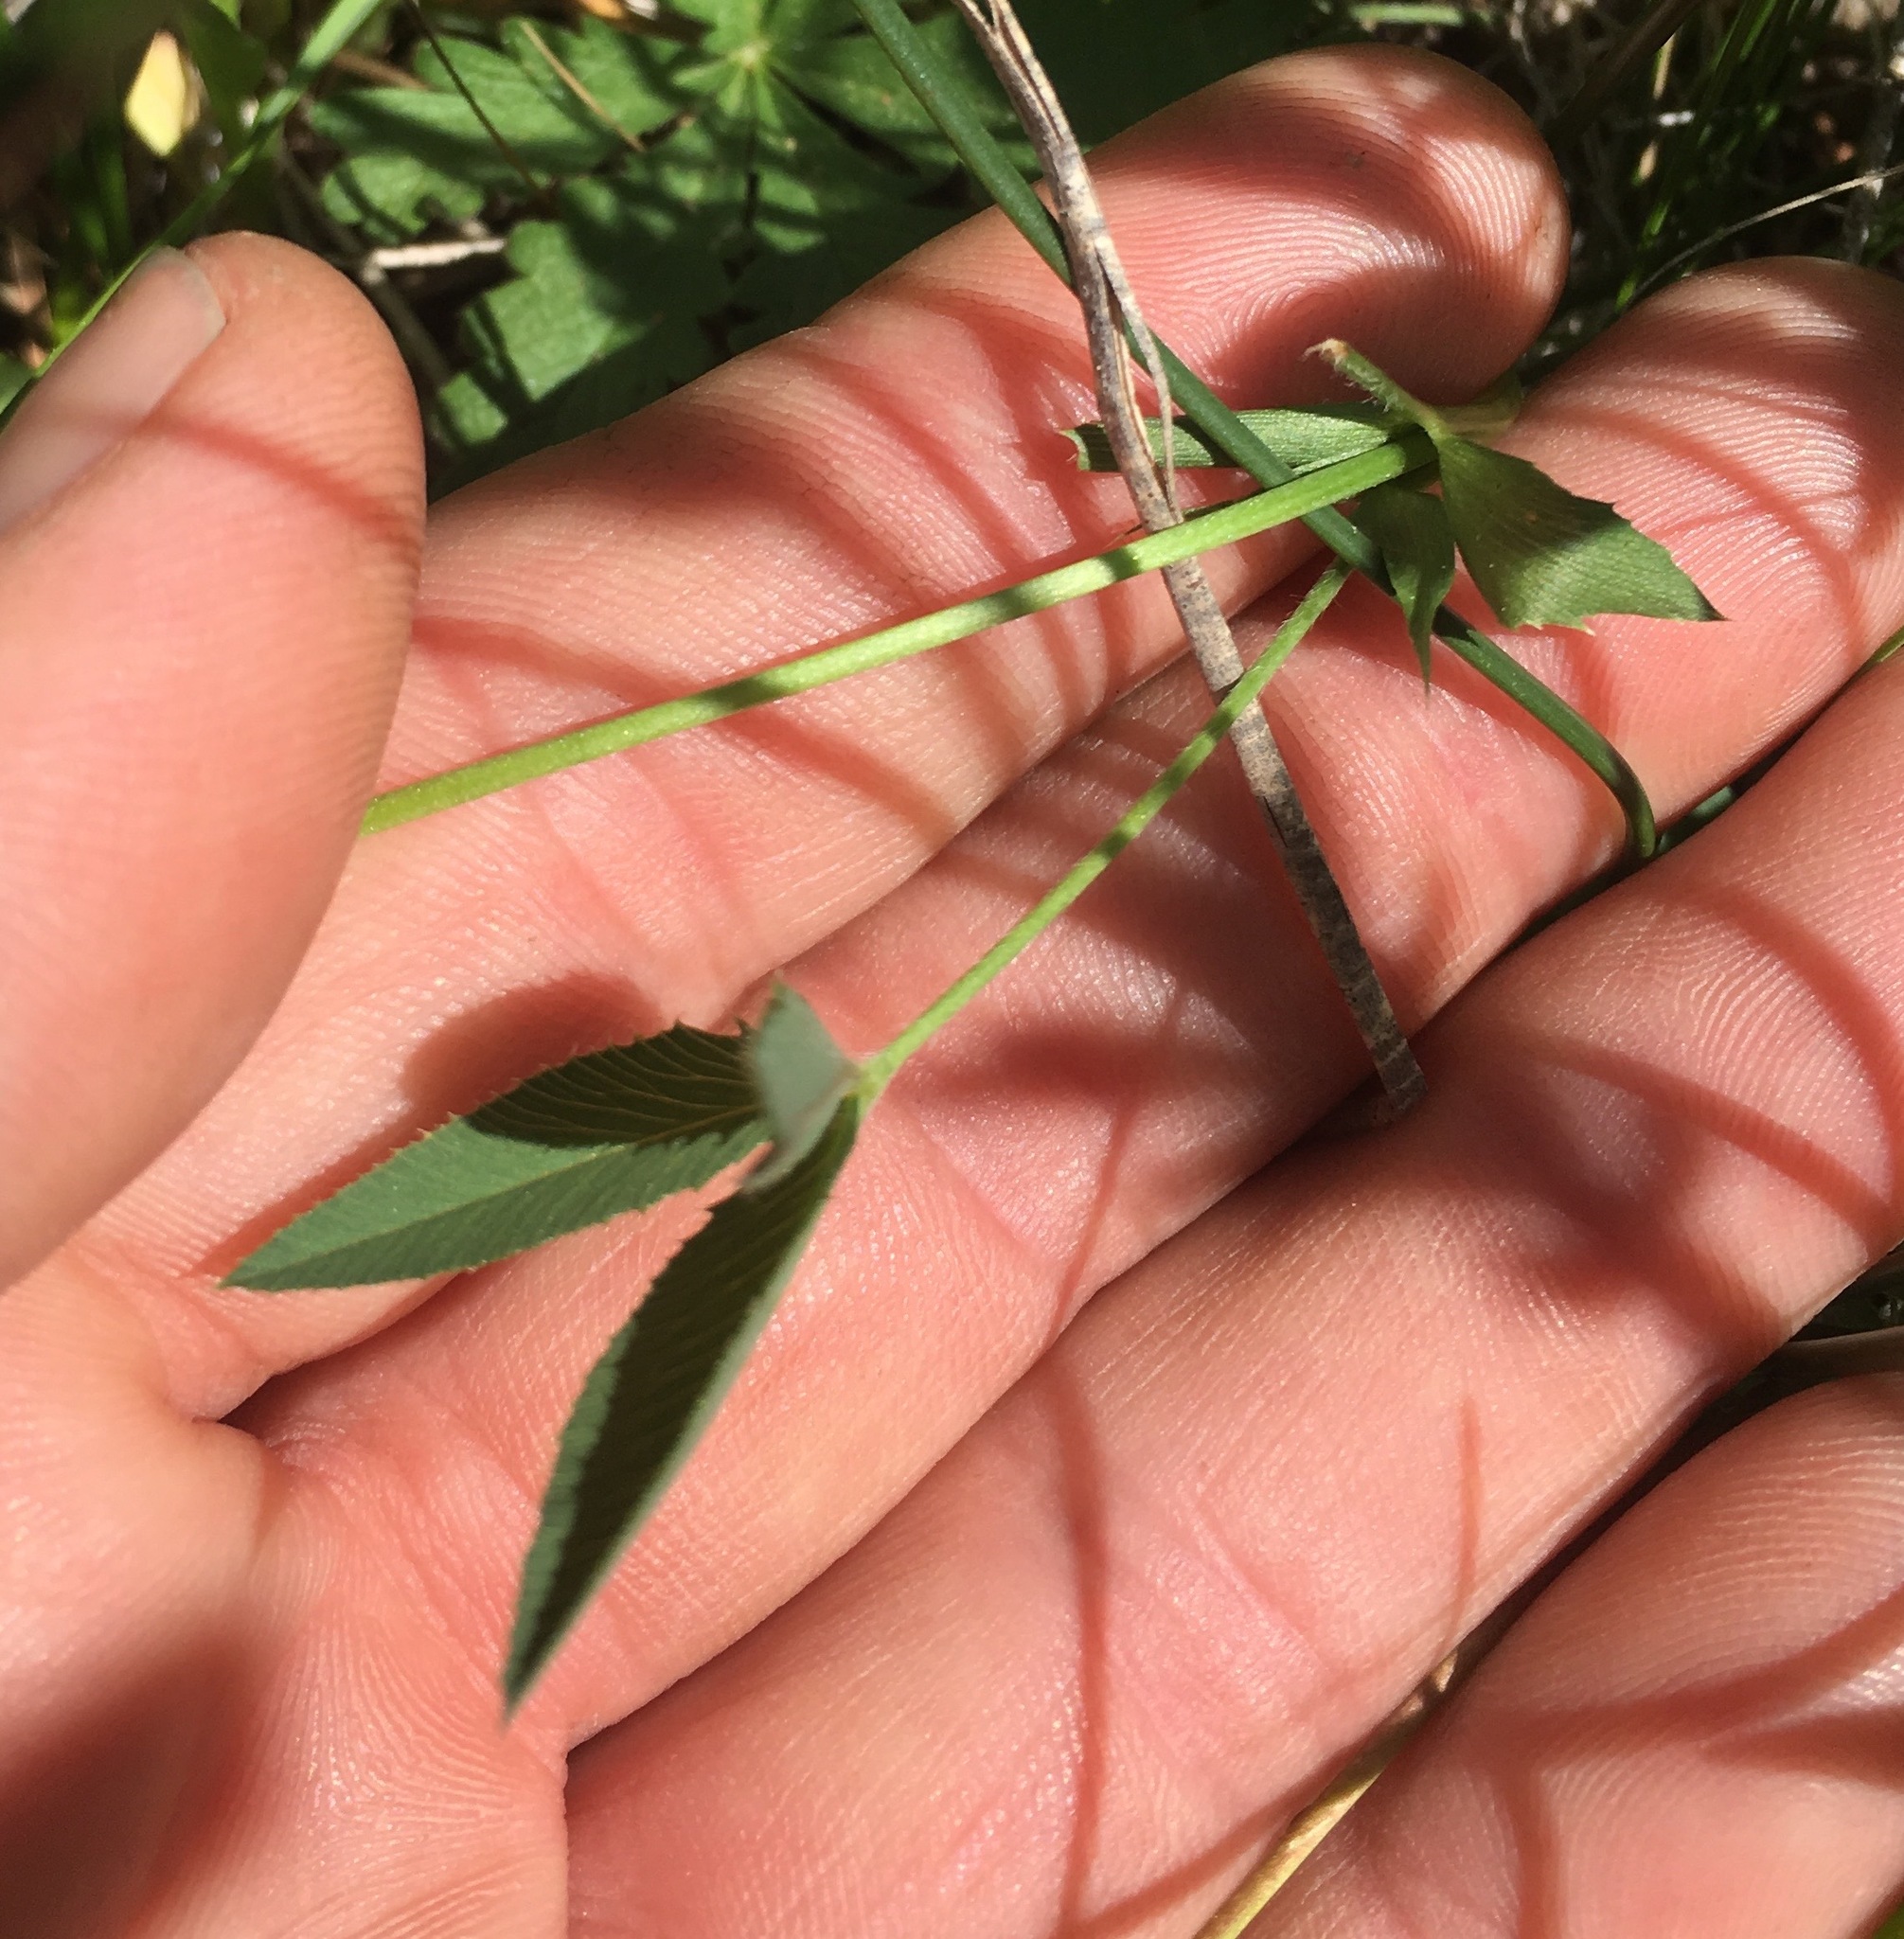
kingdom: Plantae
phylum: Tracheophyta
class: Magnoliopsida
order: Fabales
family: Fabaceae
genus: Trifolium
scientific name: Trifolium longipes
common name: Long-stalk clover
